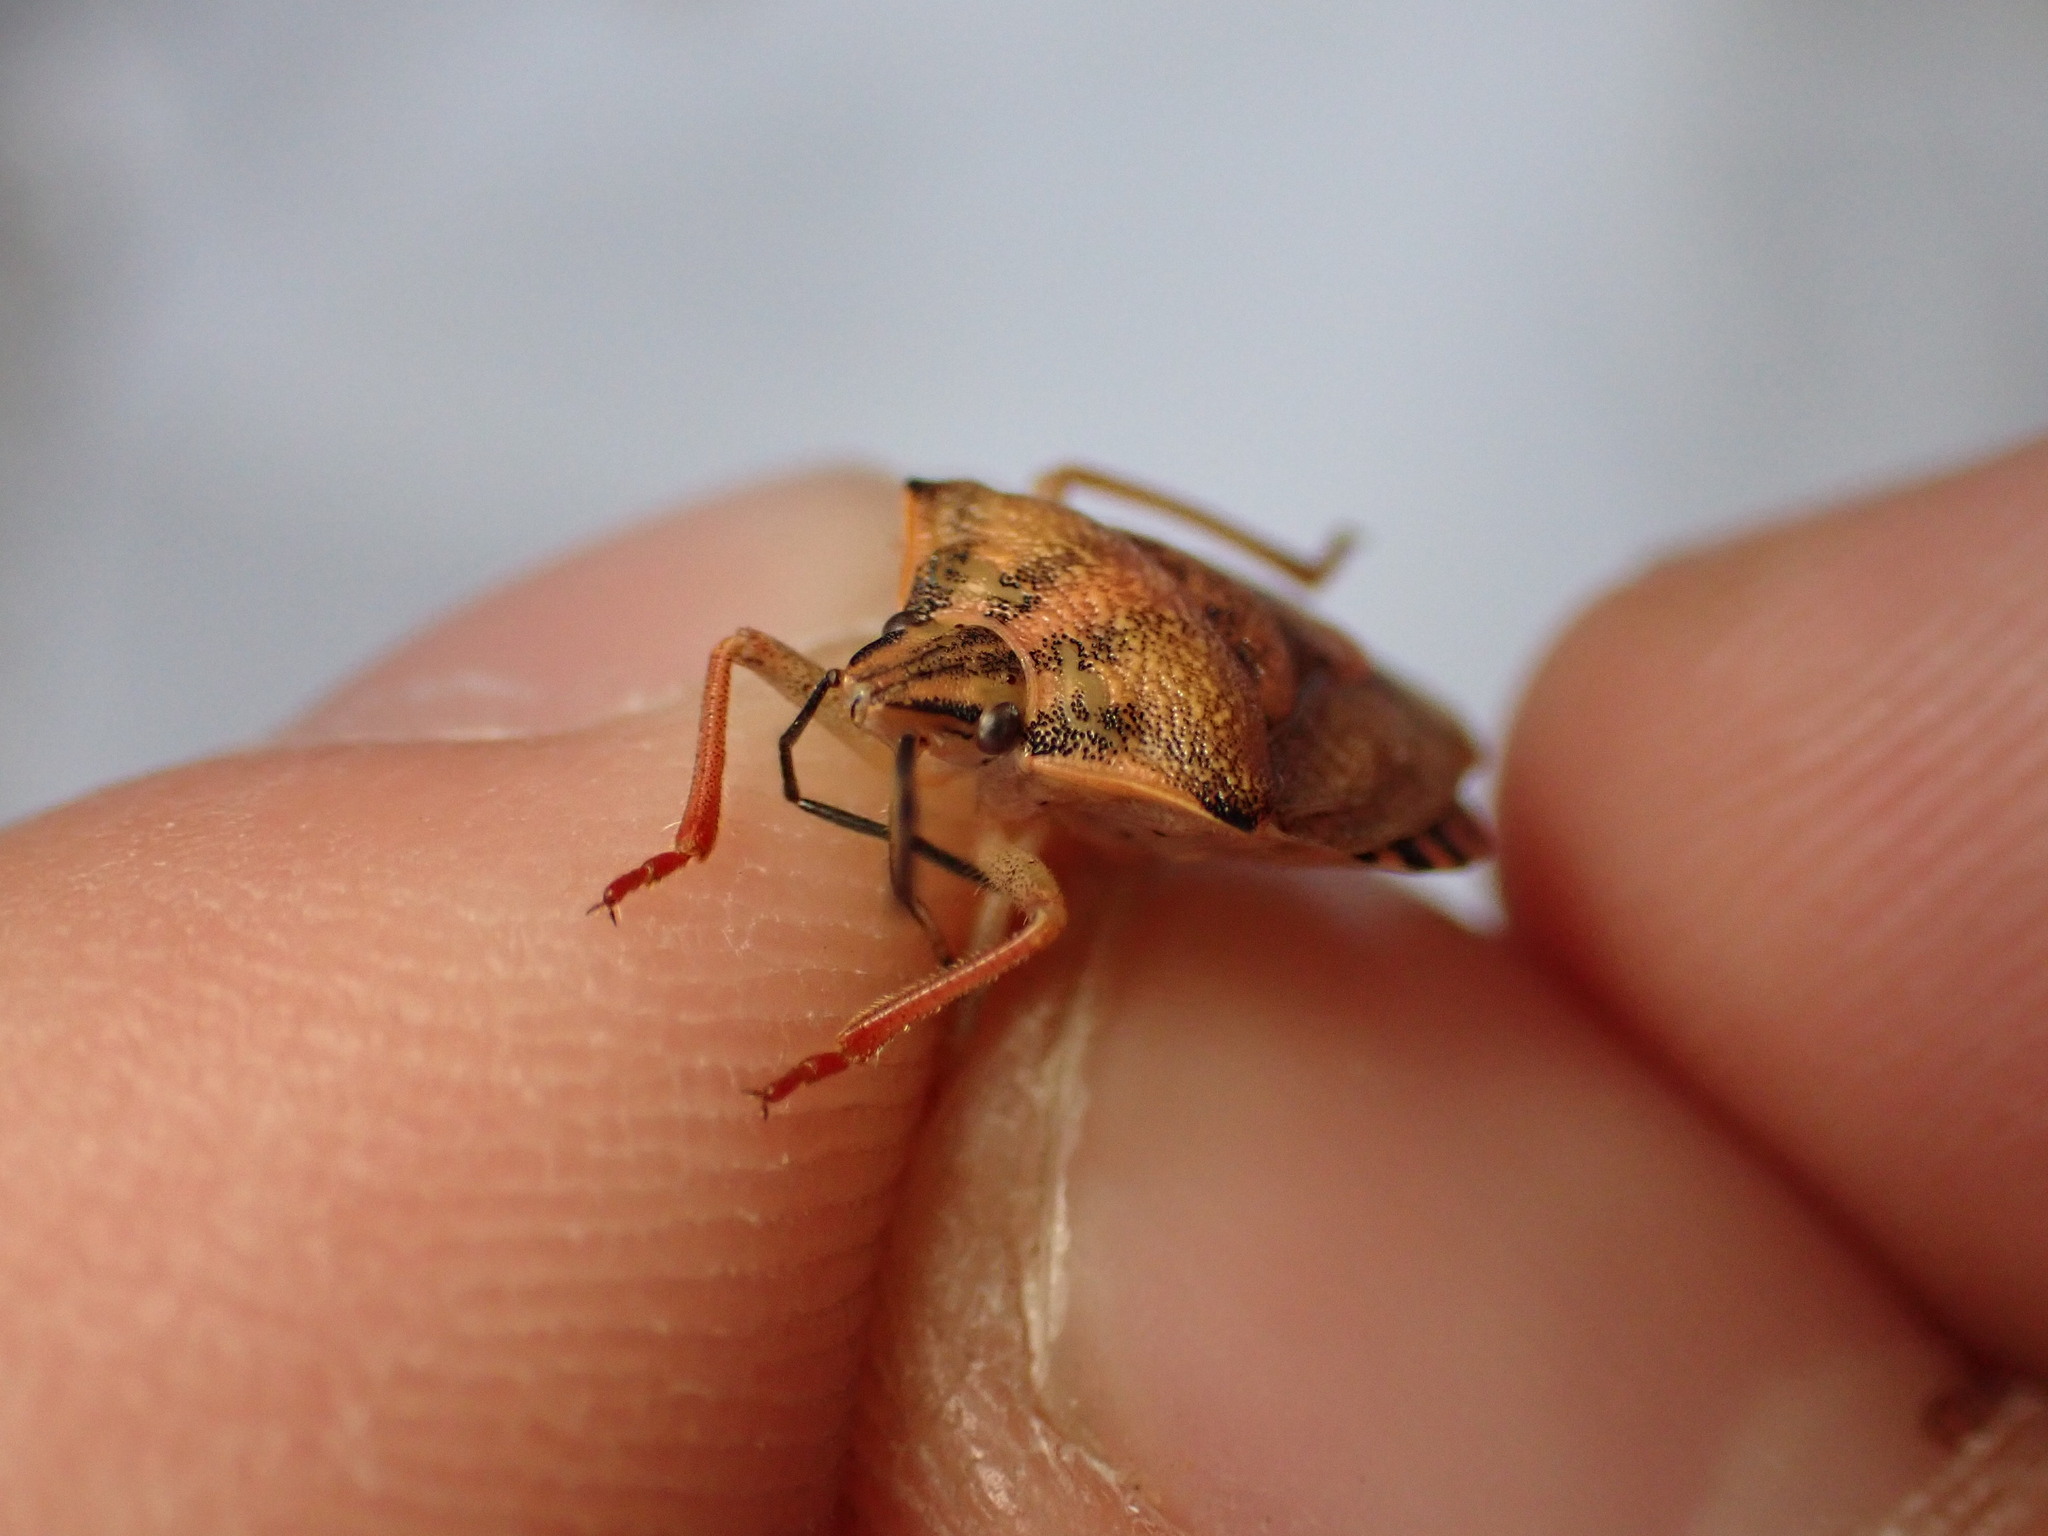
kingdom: Animalia
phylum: Arthropoda
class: Insecta
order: Hemiptera
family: Pentatomidae
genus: Carpocoris
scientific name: Carpocoris purpureipennis
